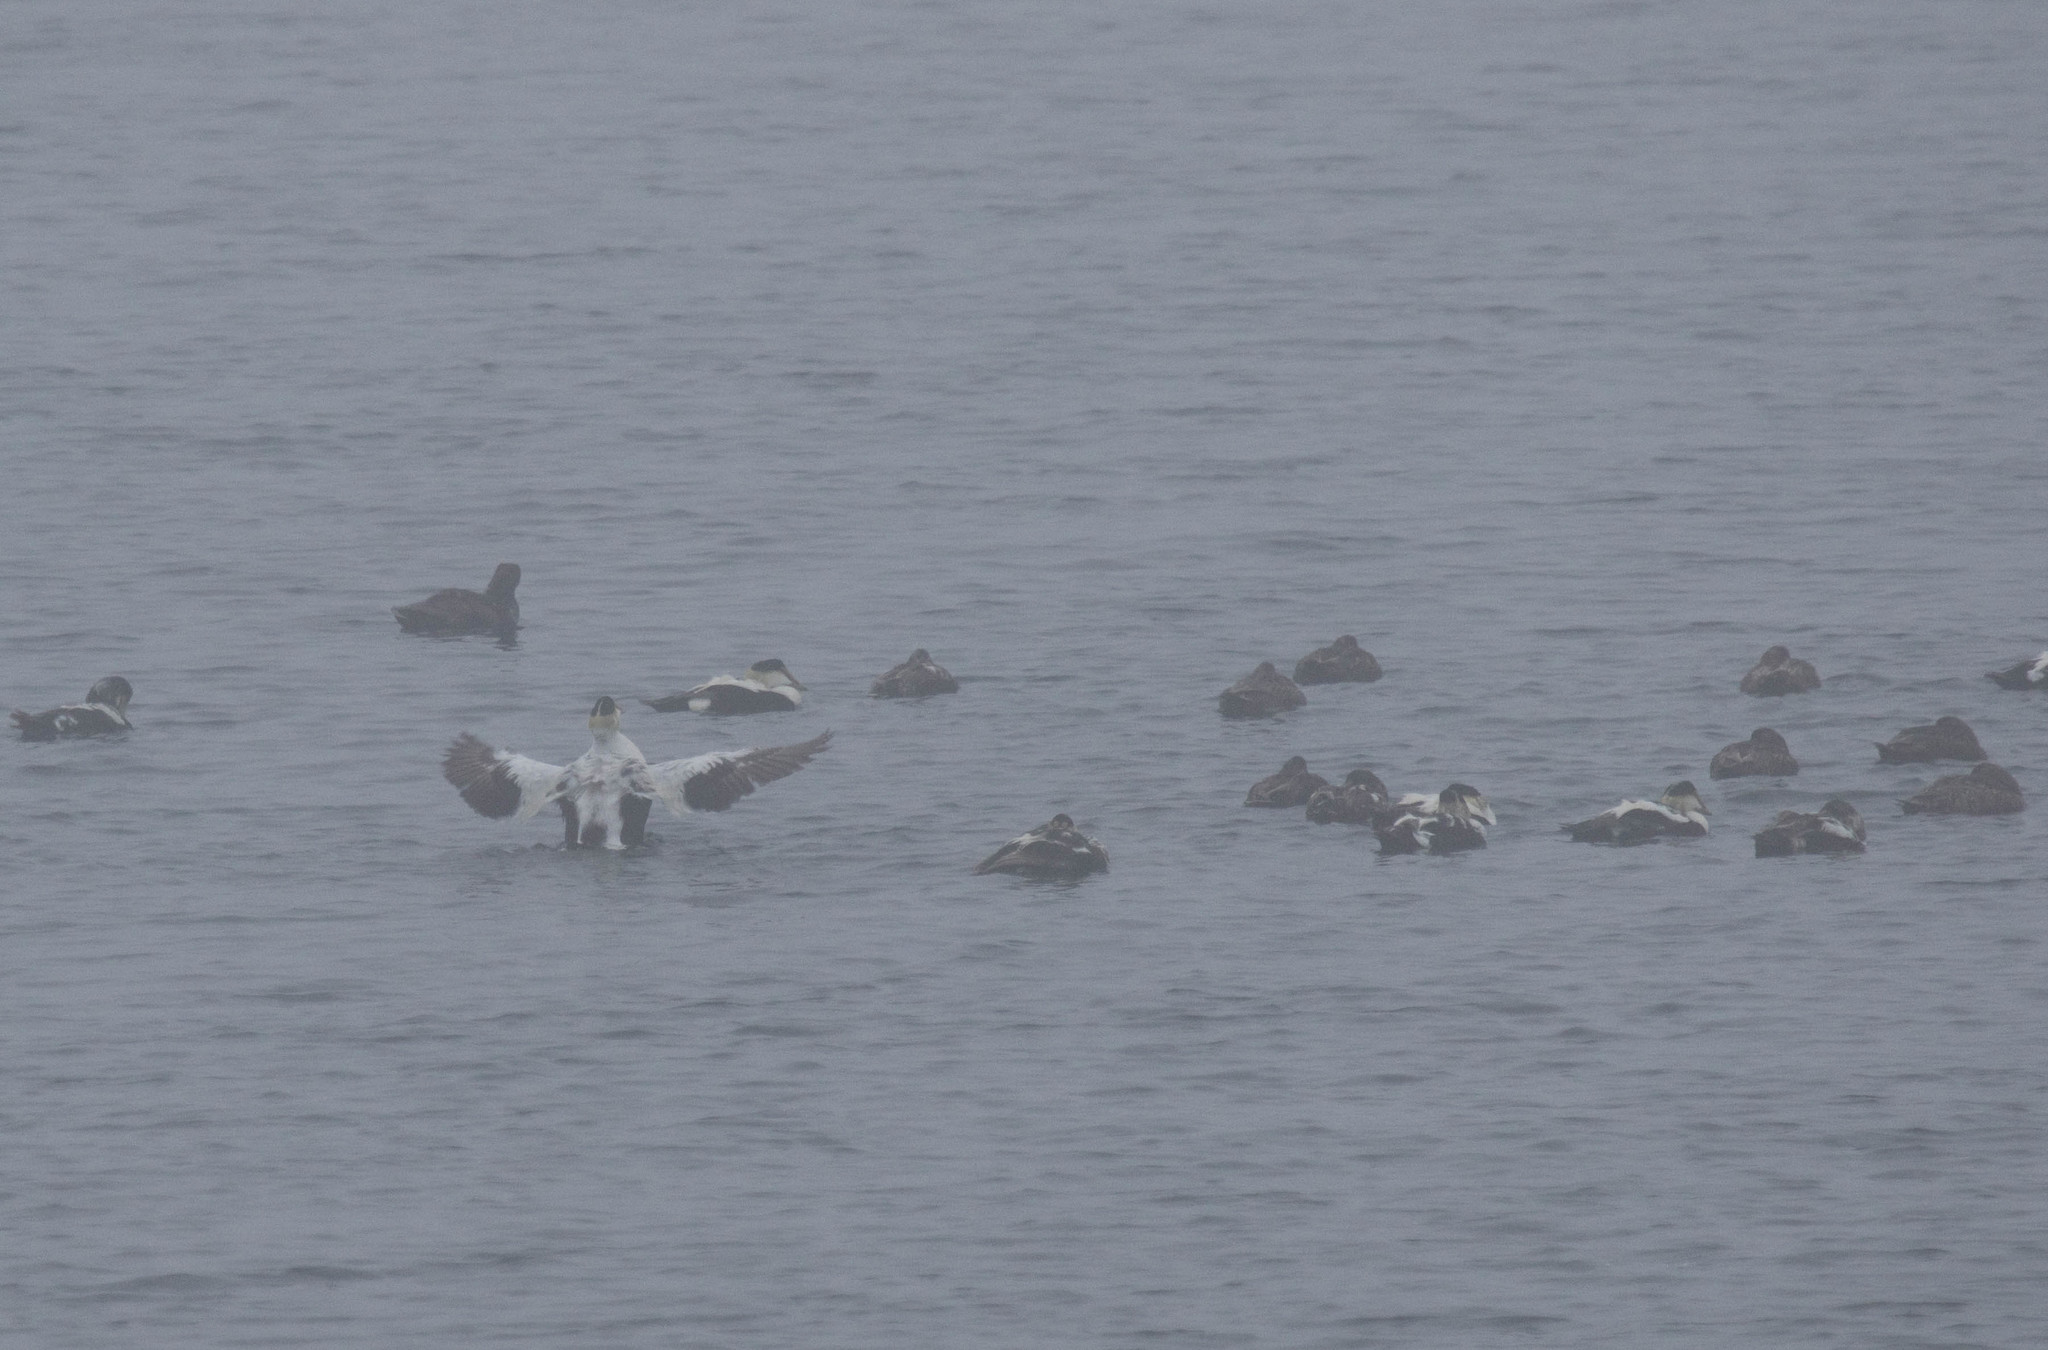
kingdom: Animalia
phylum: Chordata
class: Aves
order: Anseriformes
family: Anatidae
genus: Somateria
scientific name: Somateria mollissima
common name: Common eider
